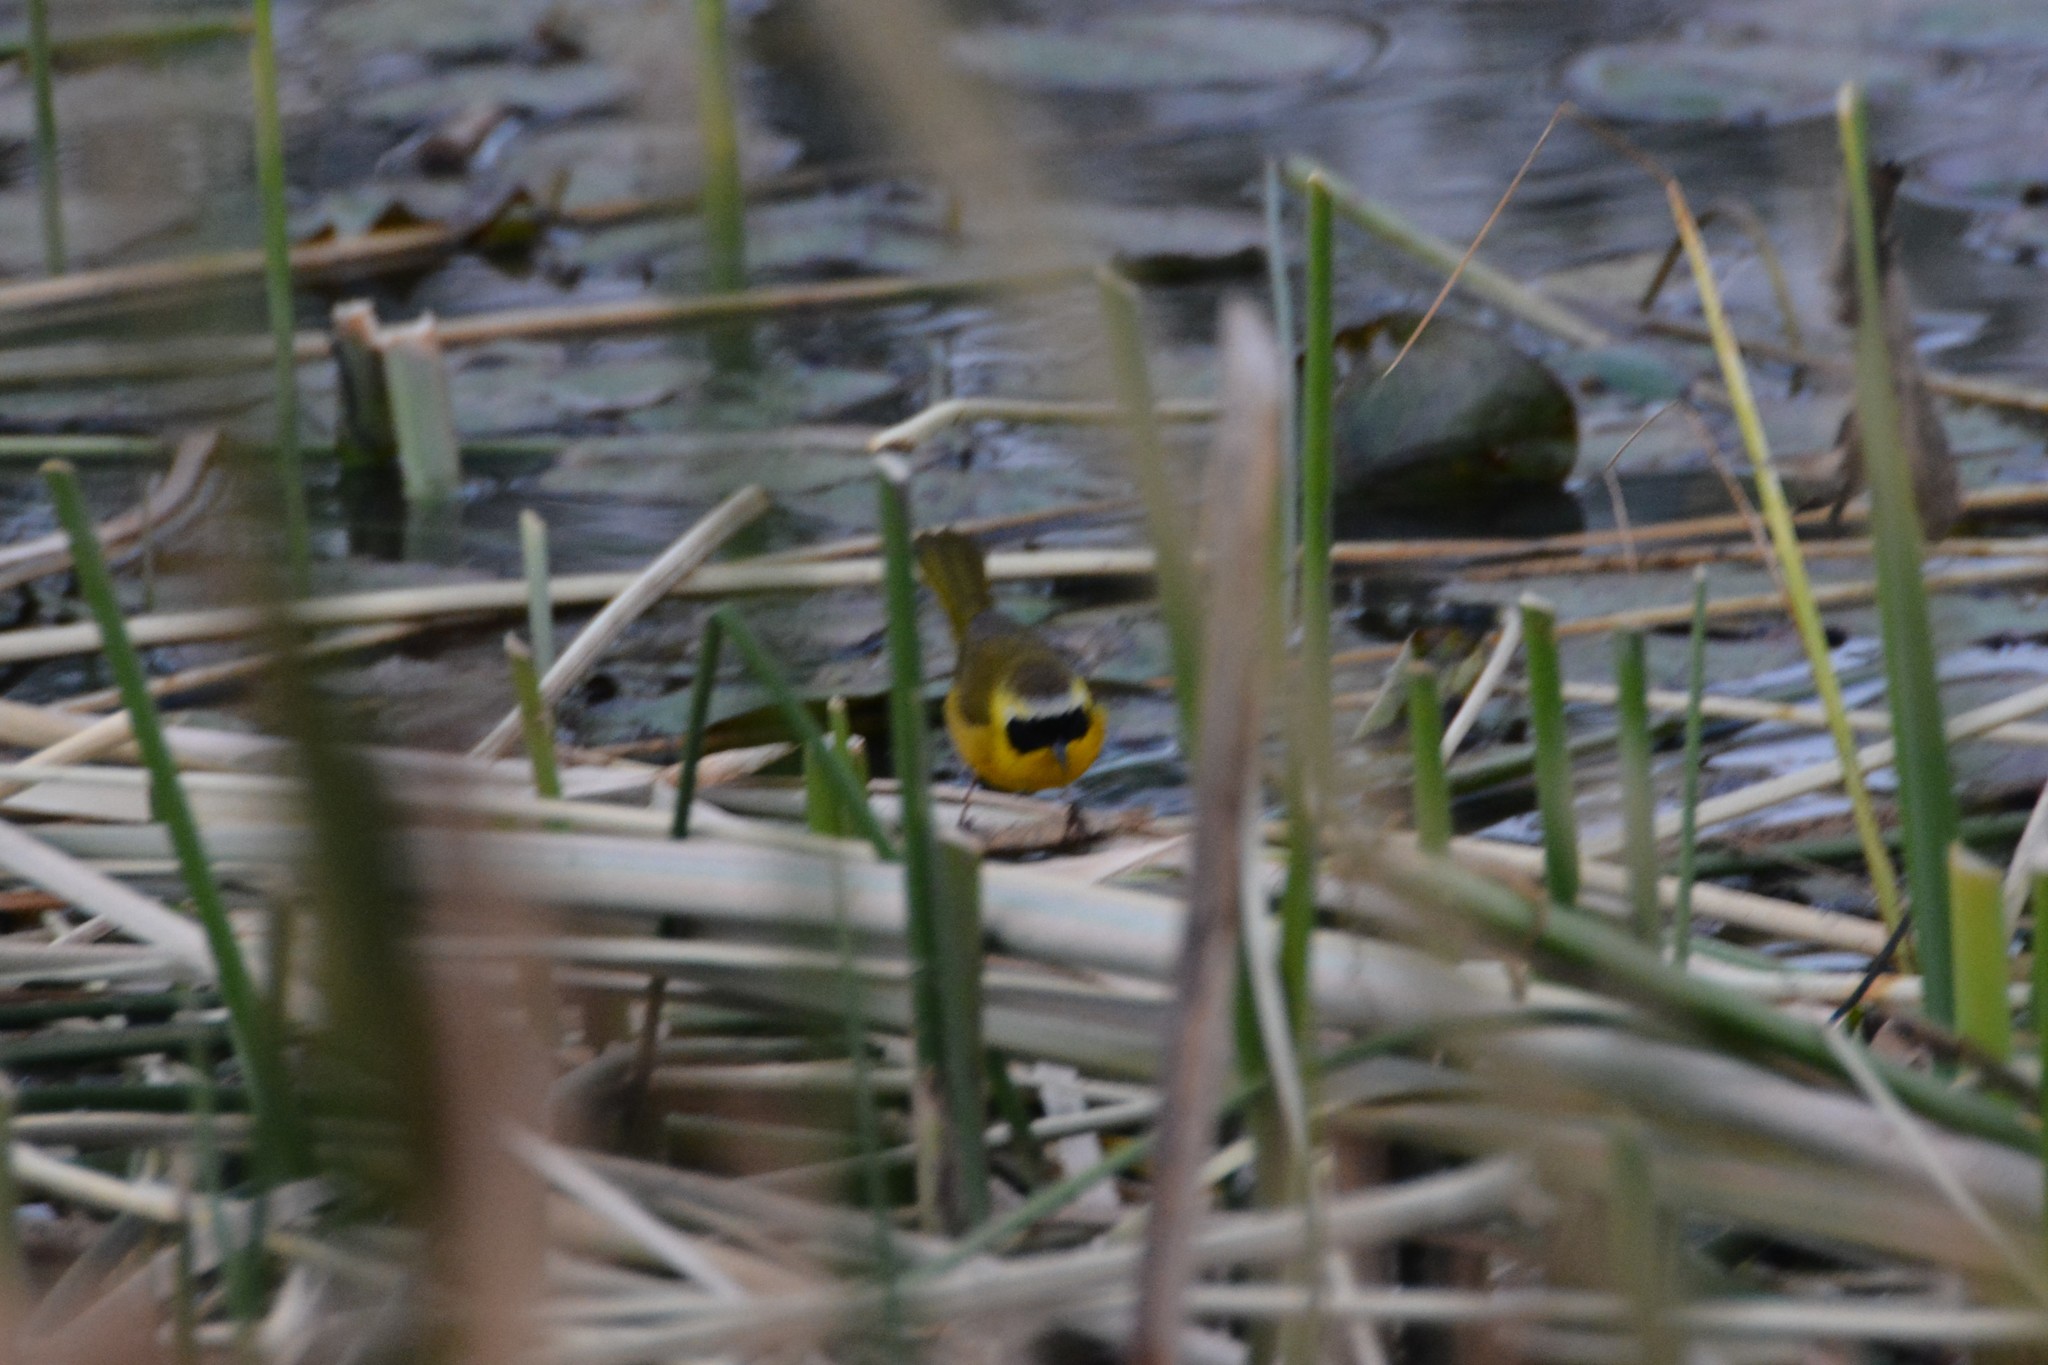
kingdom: Animalia
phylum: Chordata
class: Aves
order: Passeriformes
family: Parulidae
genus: Geothlypis
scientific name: Geothlypis trichas
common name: Common yellowthroat
